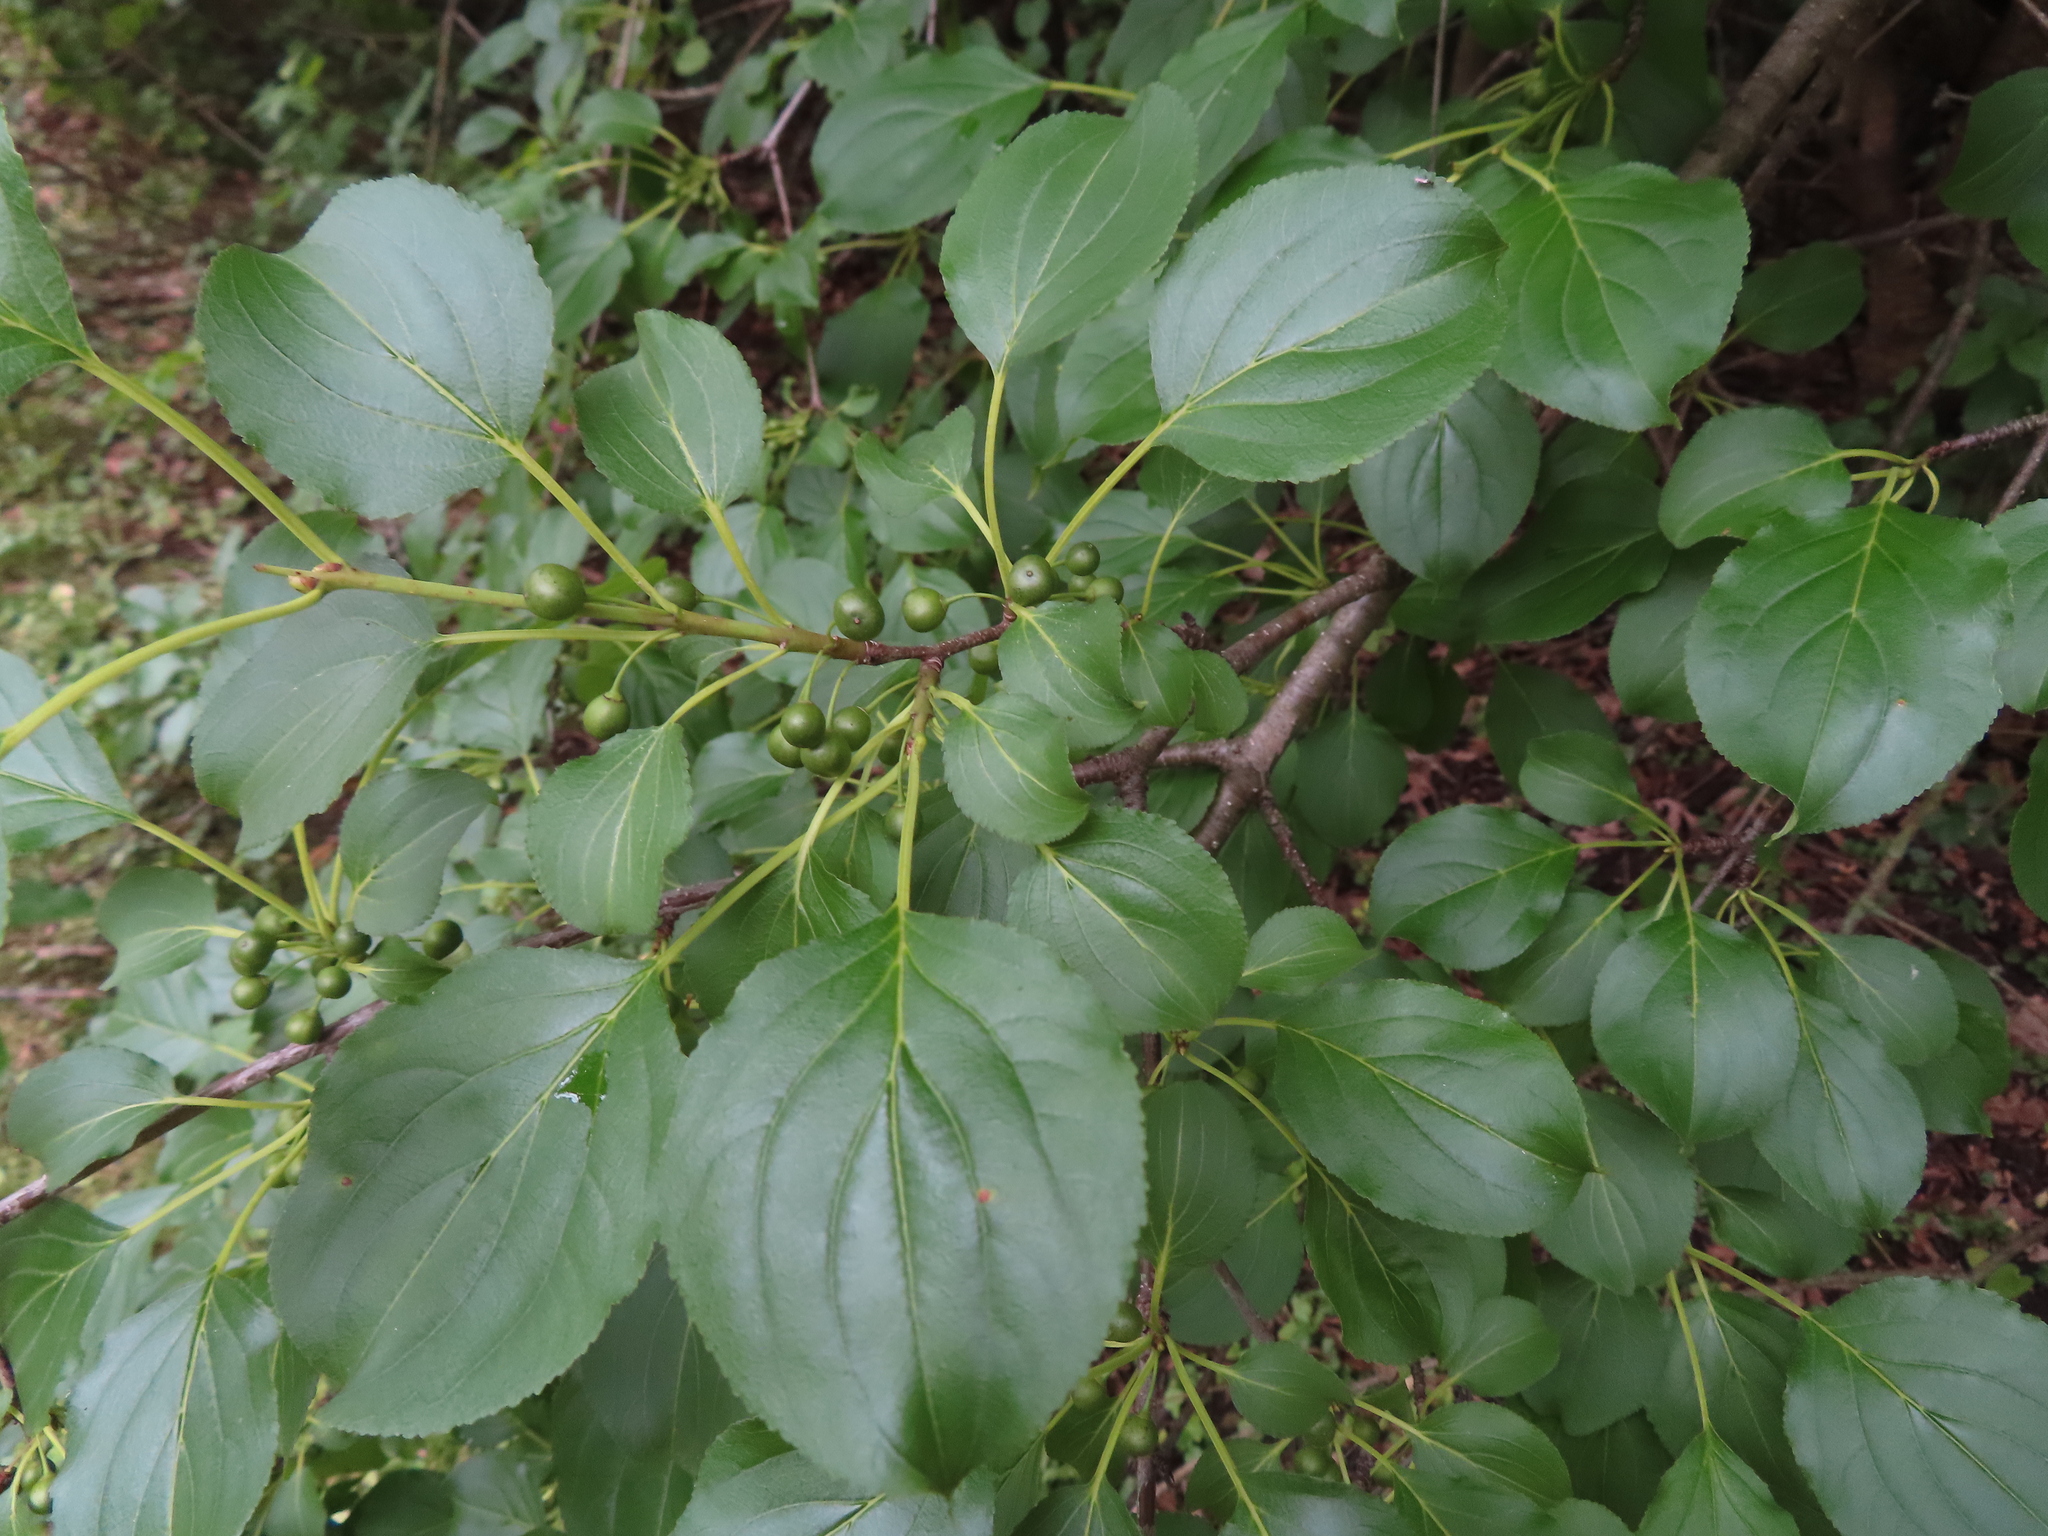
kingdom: Plantae
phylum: Tracheophyta
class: Magnoliopsida
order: Rosales
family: Rhamnaceae
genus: Rhamnus
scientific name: Rhamnus cathartica
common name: Common buckthorn
